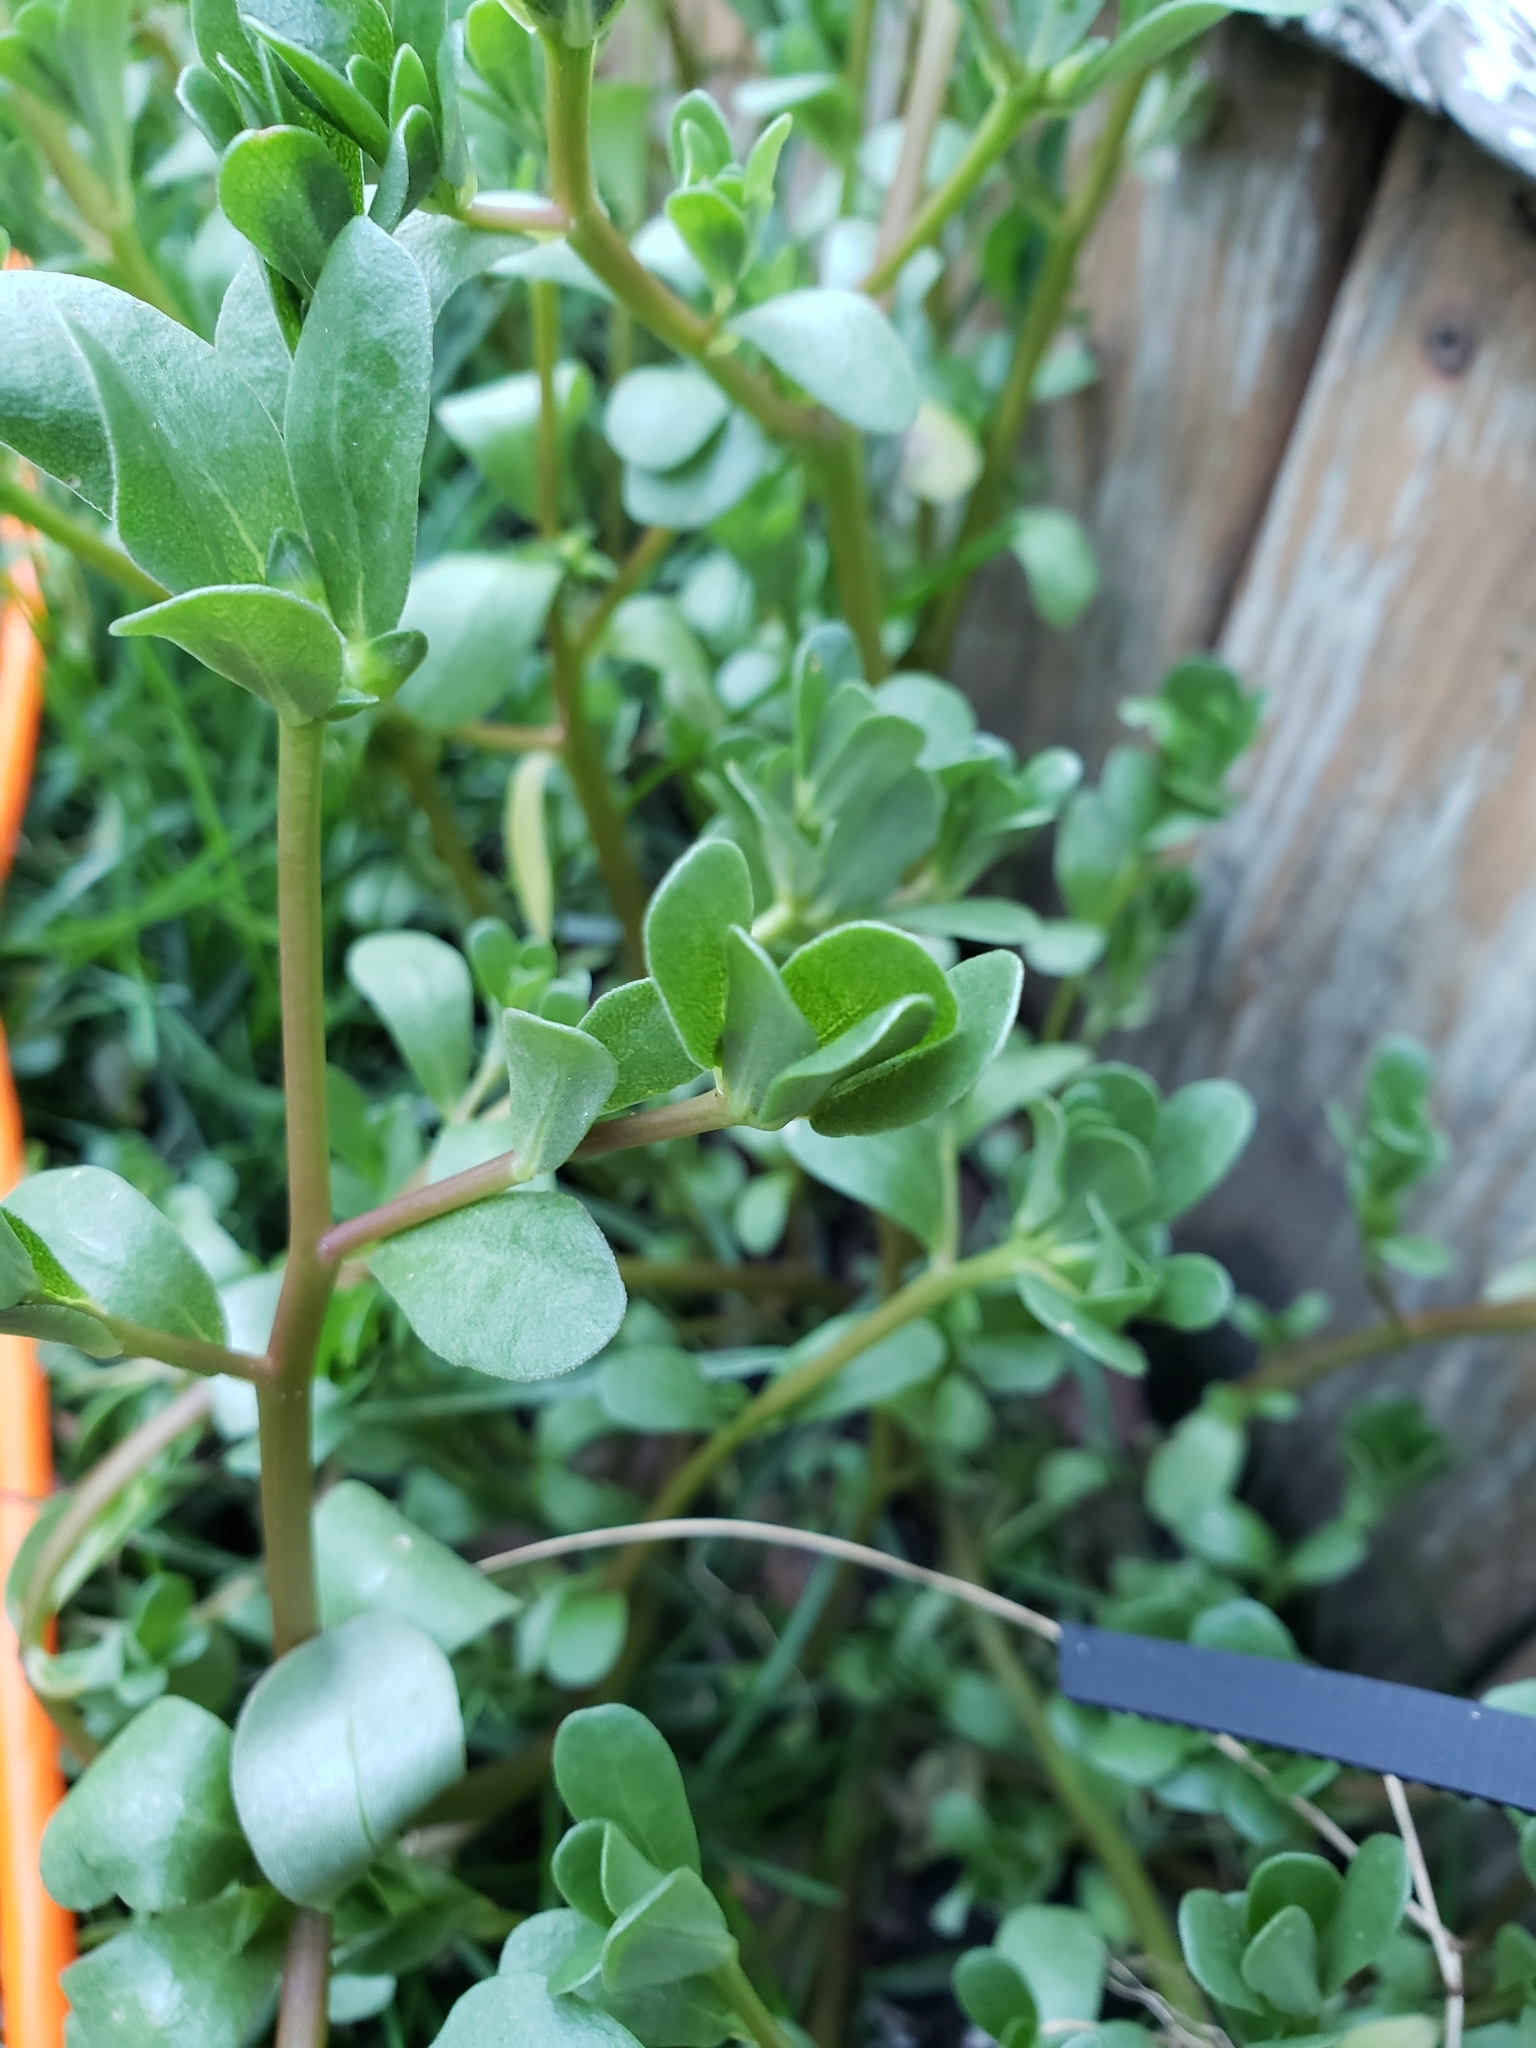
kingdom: Plantae
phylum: Tracheophyta
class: Magnoliopsida
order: Caryophyllales
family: Portulacaceae
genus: Portulaca
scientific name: Portulaca oleracea
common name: Common purslane
